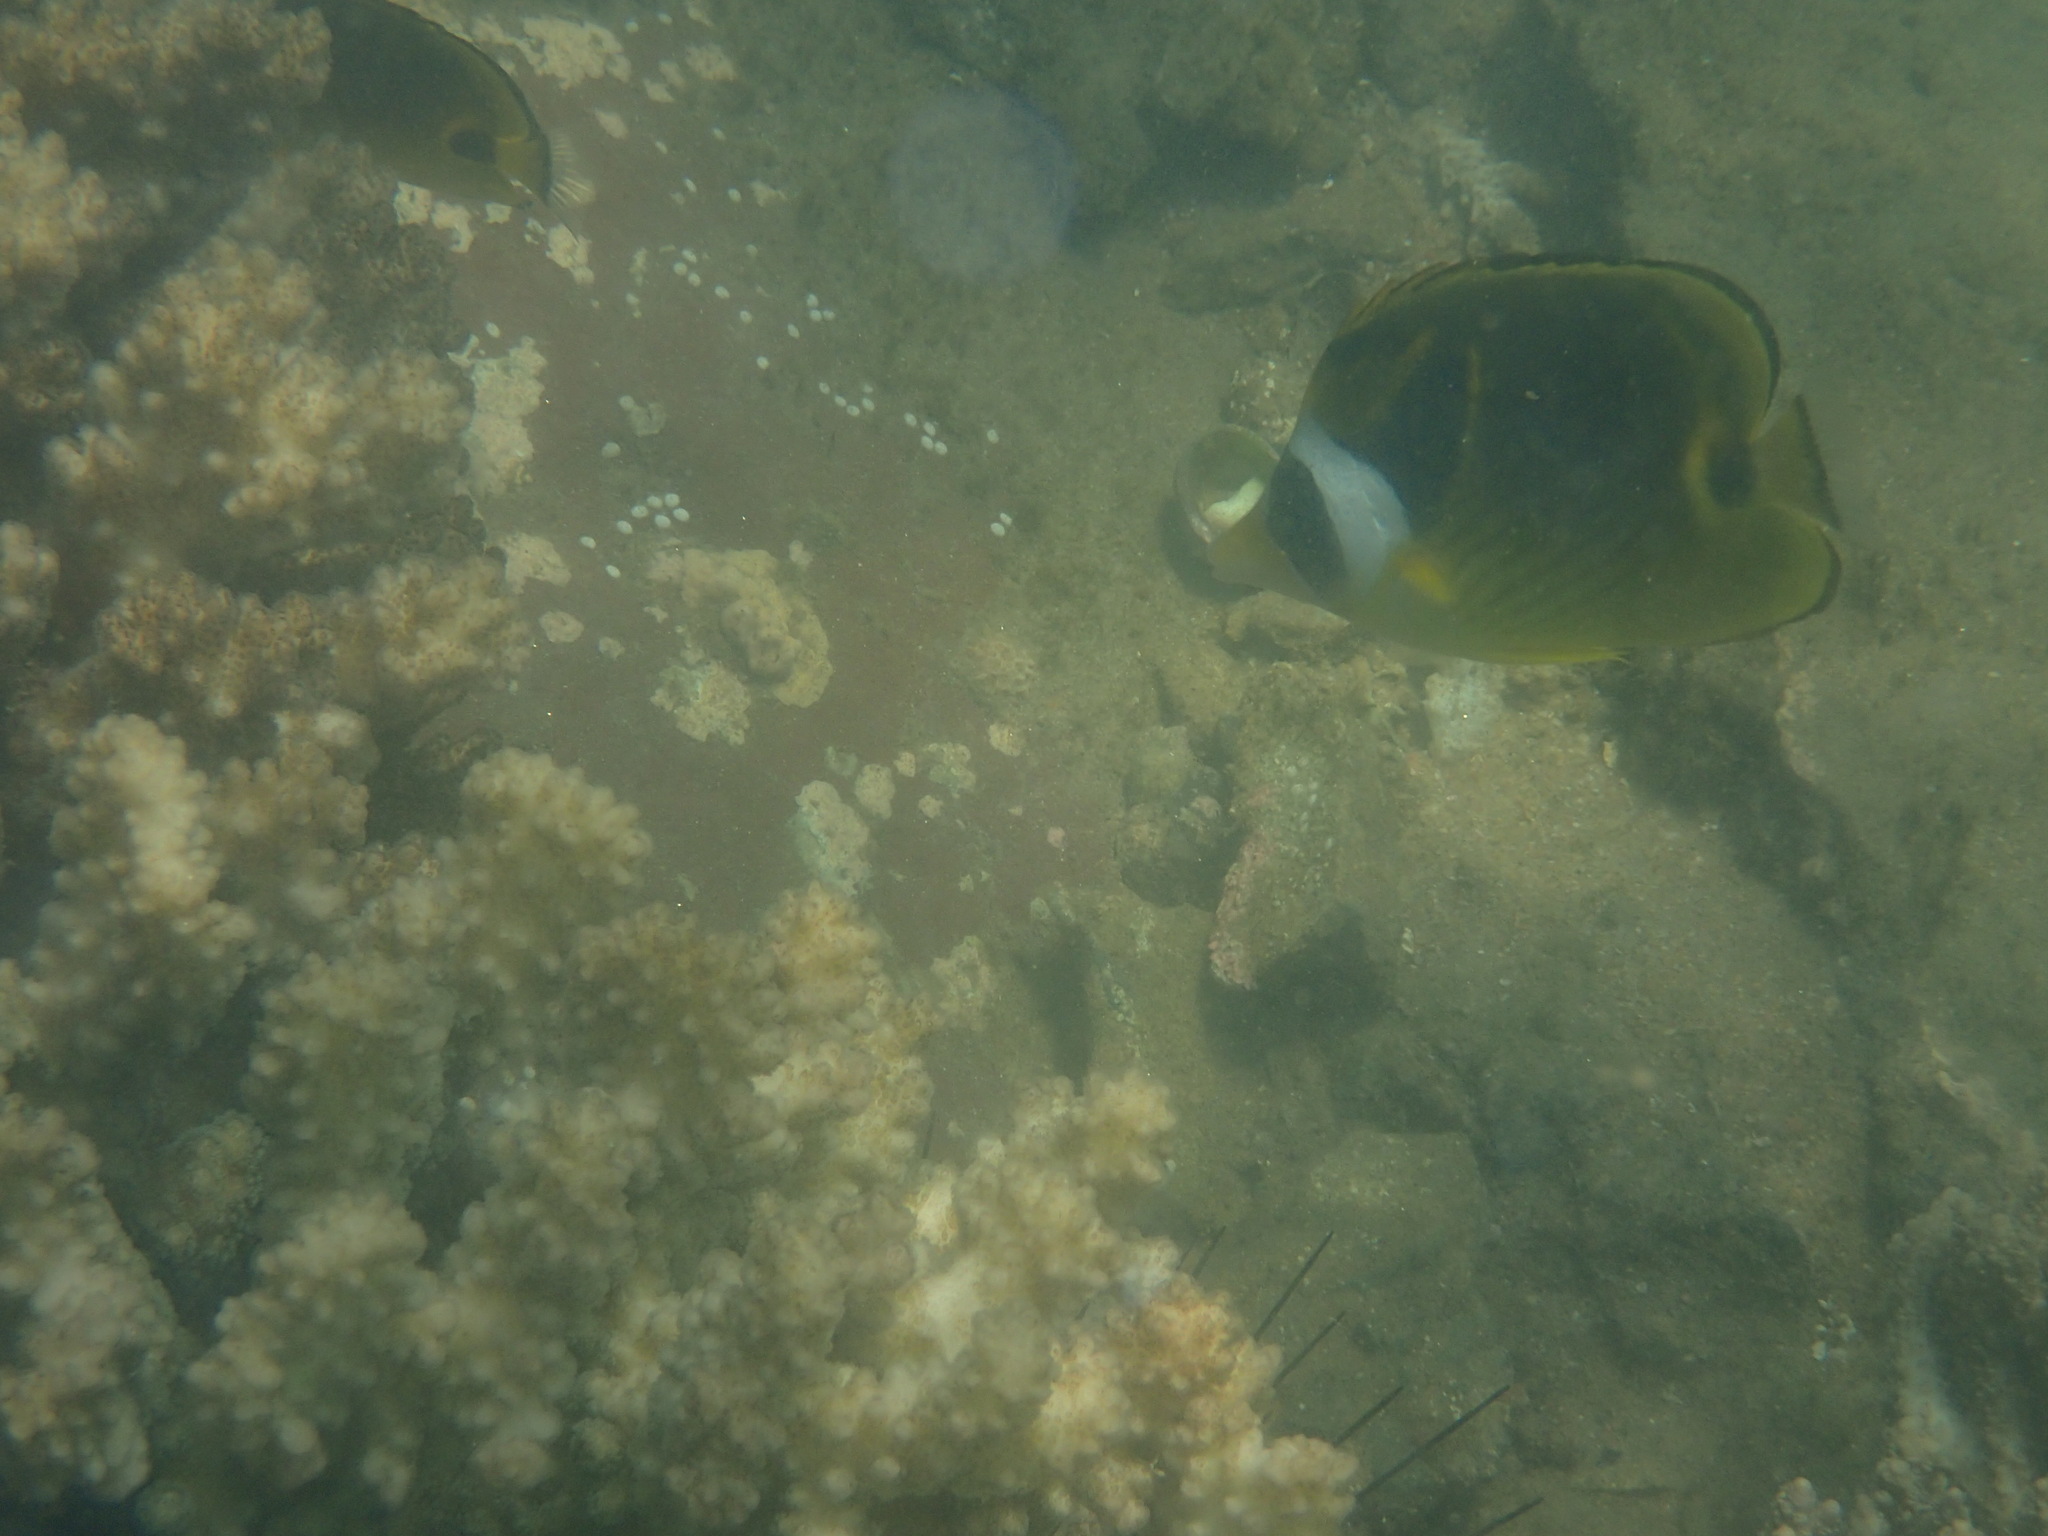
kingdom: Animalia
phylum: Chordata
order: Perciformes
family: Chaetodontidae
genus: Chaetodon
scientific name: Chaetodon lunula
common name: Raccoon butterflyfish
